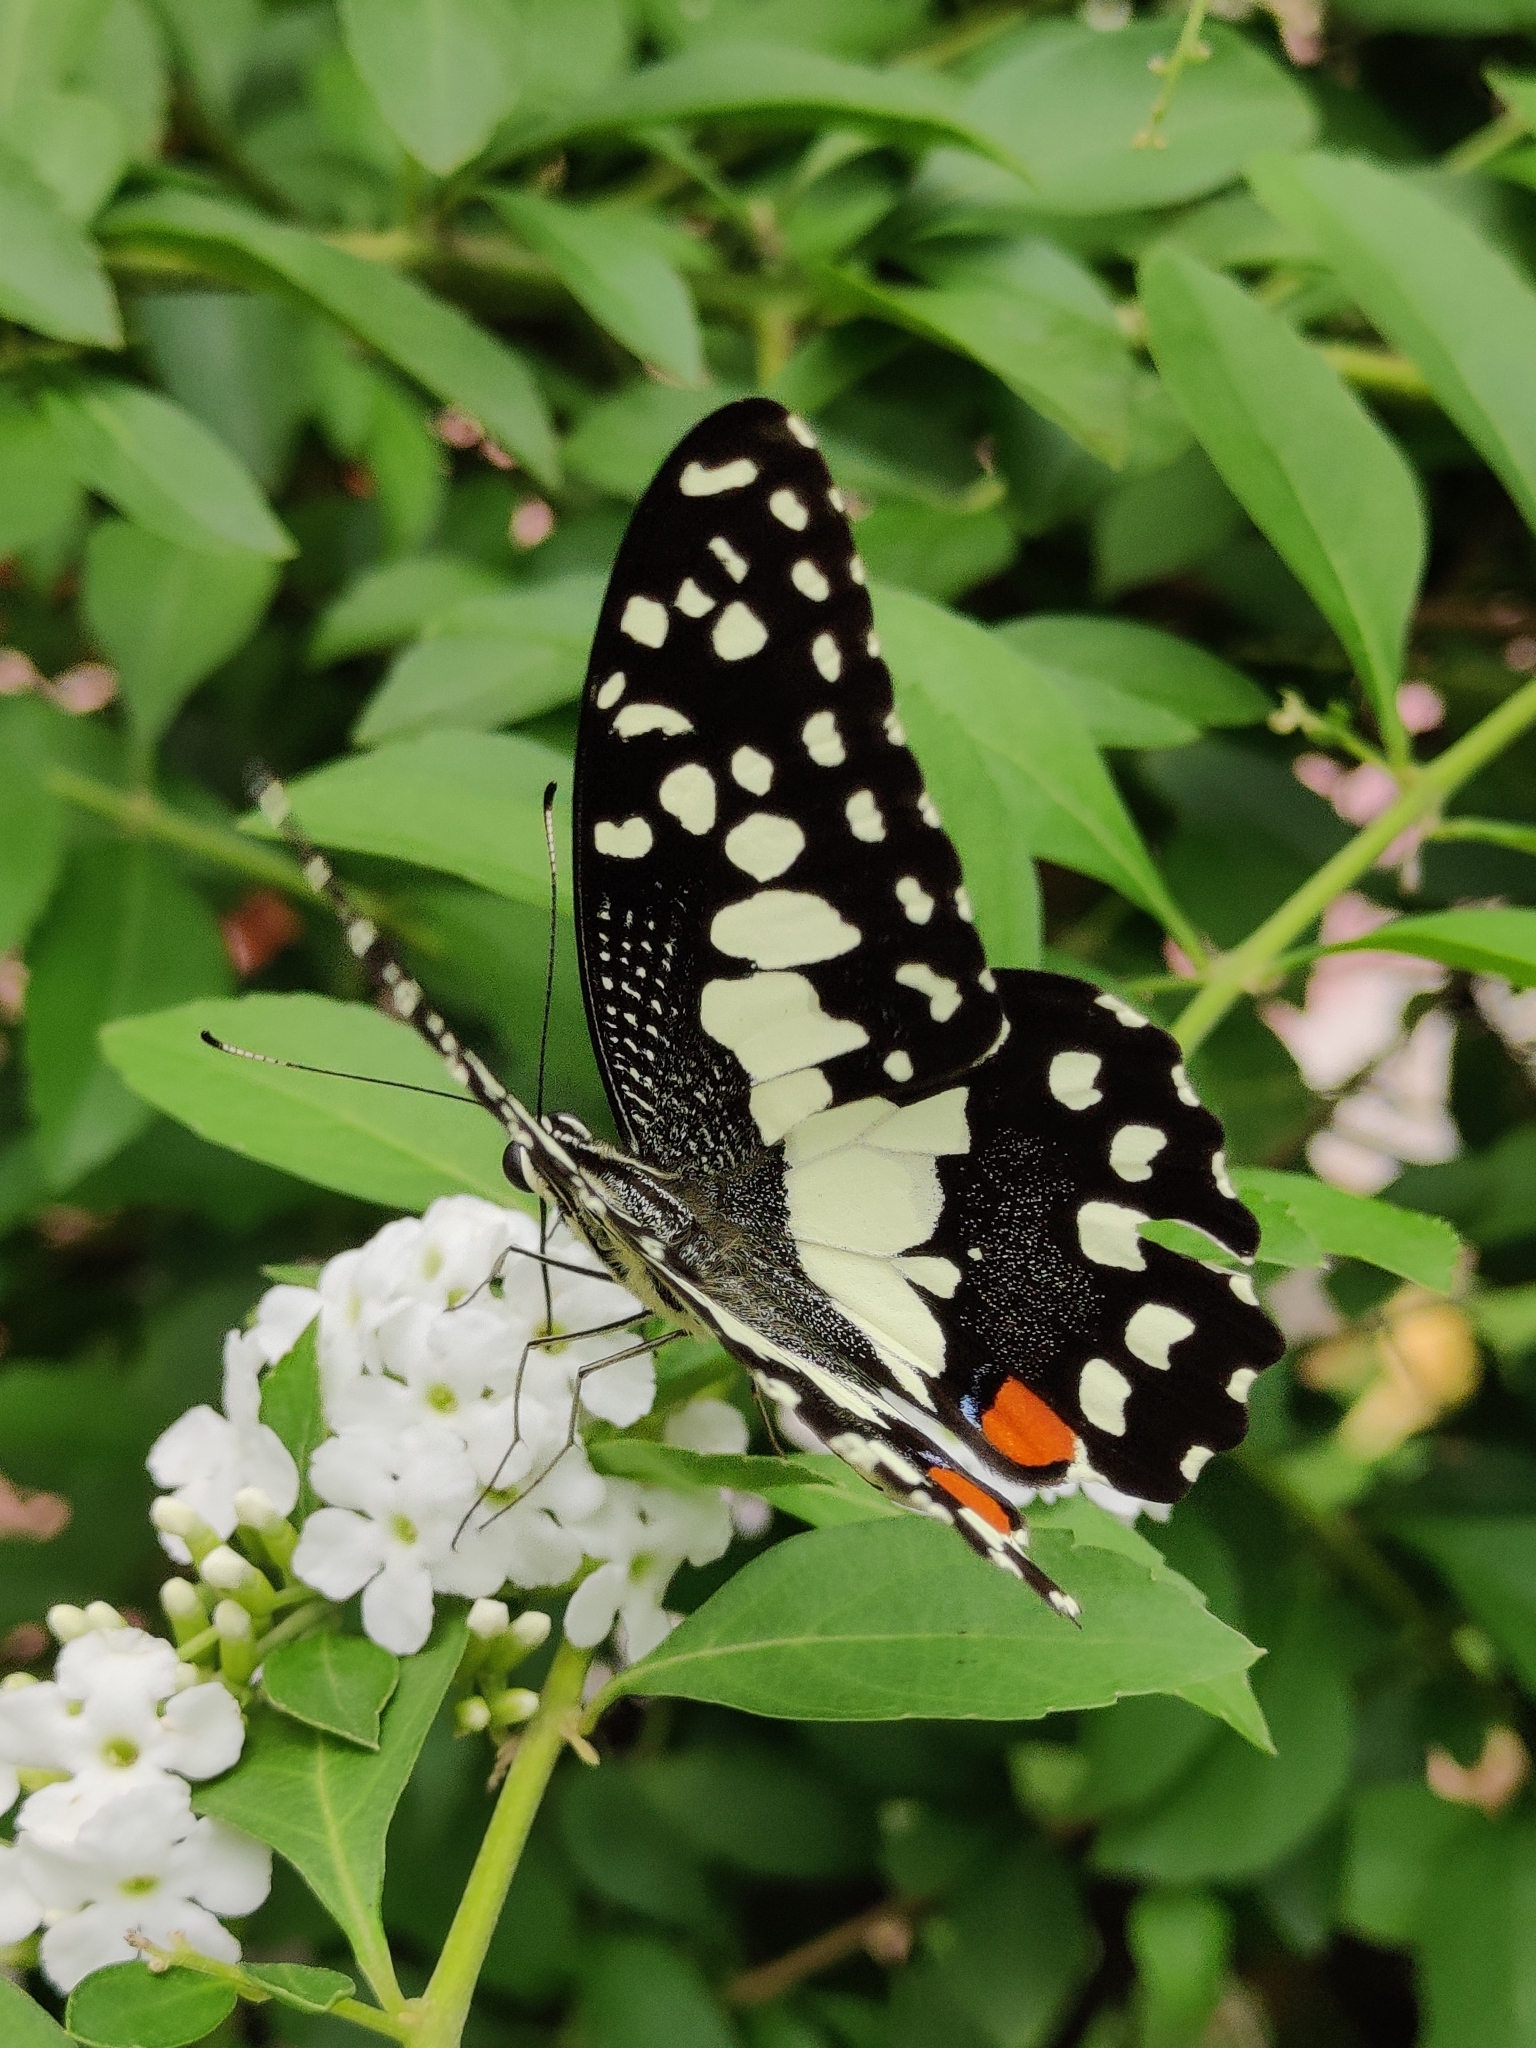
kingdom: Animalia
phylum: Arthropoda
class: Insecta
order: Lepidoptera
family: Papilionidae
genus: Papilio
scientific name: Papilio demoleus
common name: Lime butterfly
